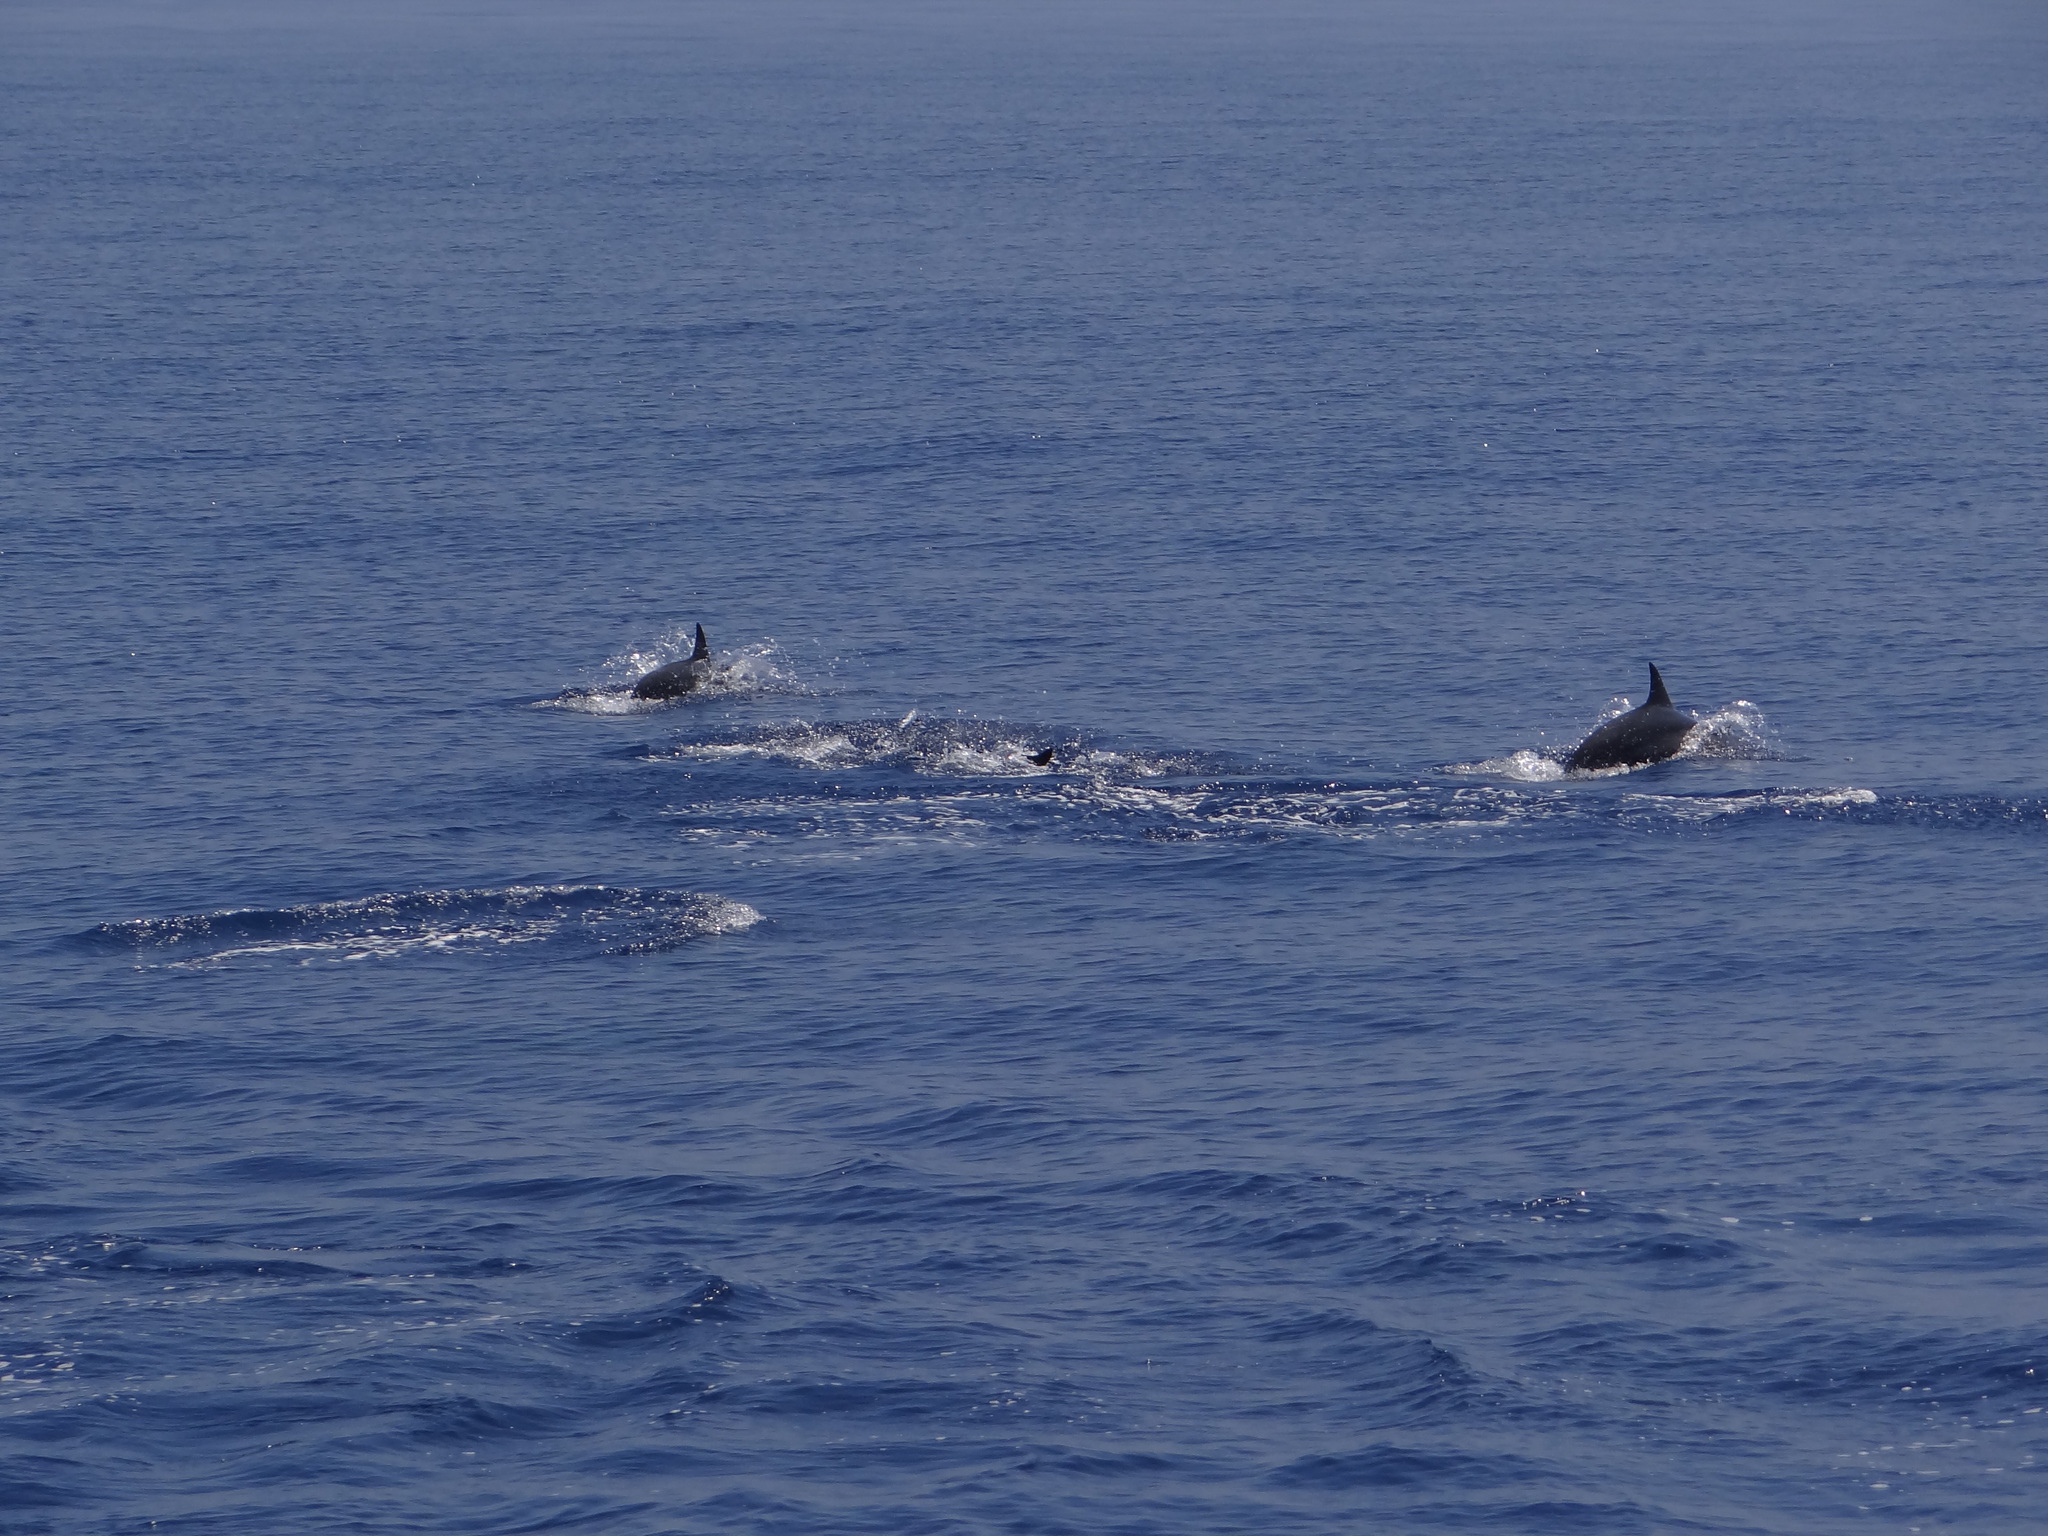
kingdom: Animalia
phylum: Chordata
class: Mammalia
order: Cetacea
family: Delphinidae
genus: Stenella
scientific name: Stenella longirostris
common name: Spinner dolphin
